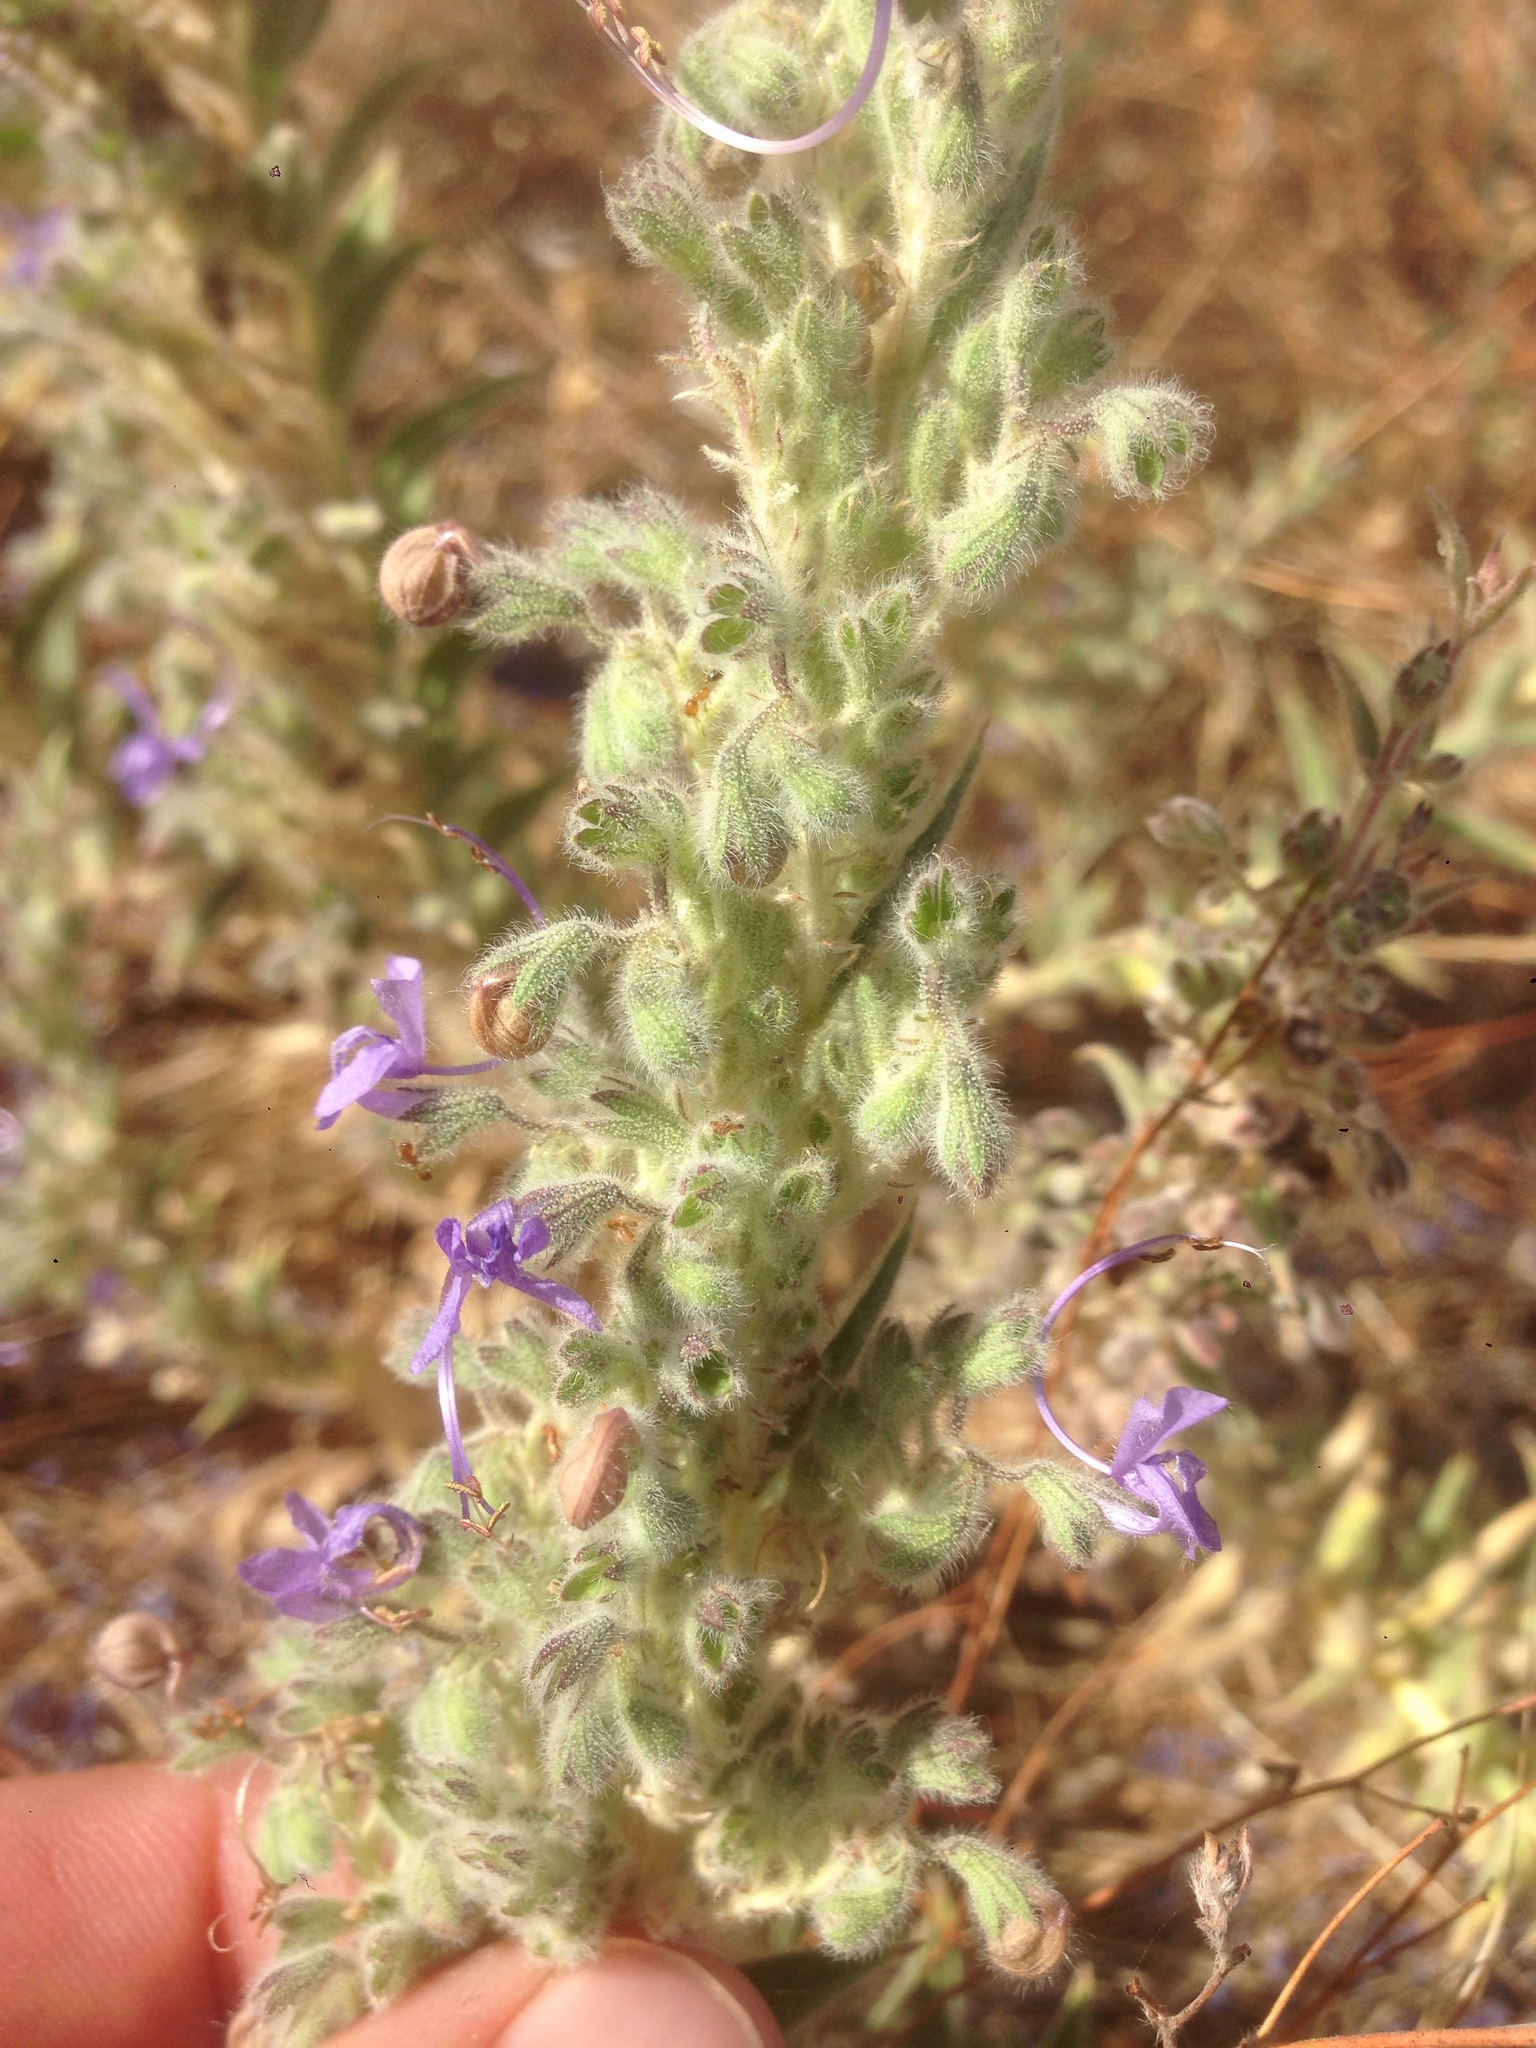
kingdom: Plantae
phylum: Tracheophyta
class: Magnoliopsida
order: Lamiales
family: Lamiaceae
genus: Trichostema
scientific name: Trichostema lanceolatum
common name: Vinegar-weed
